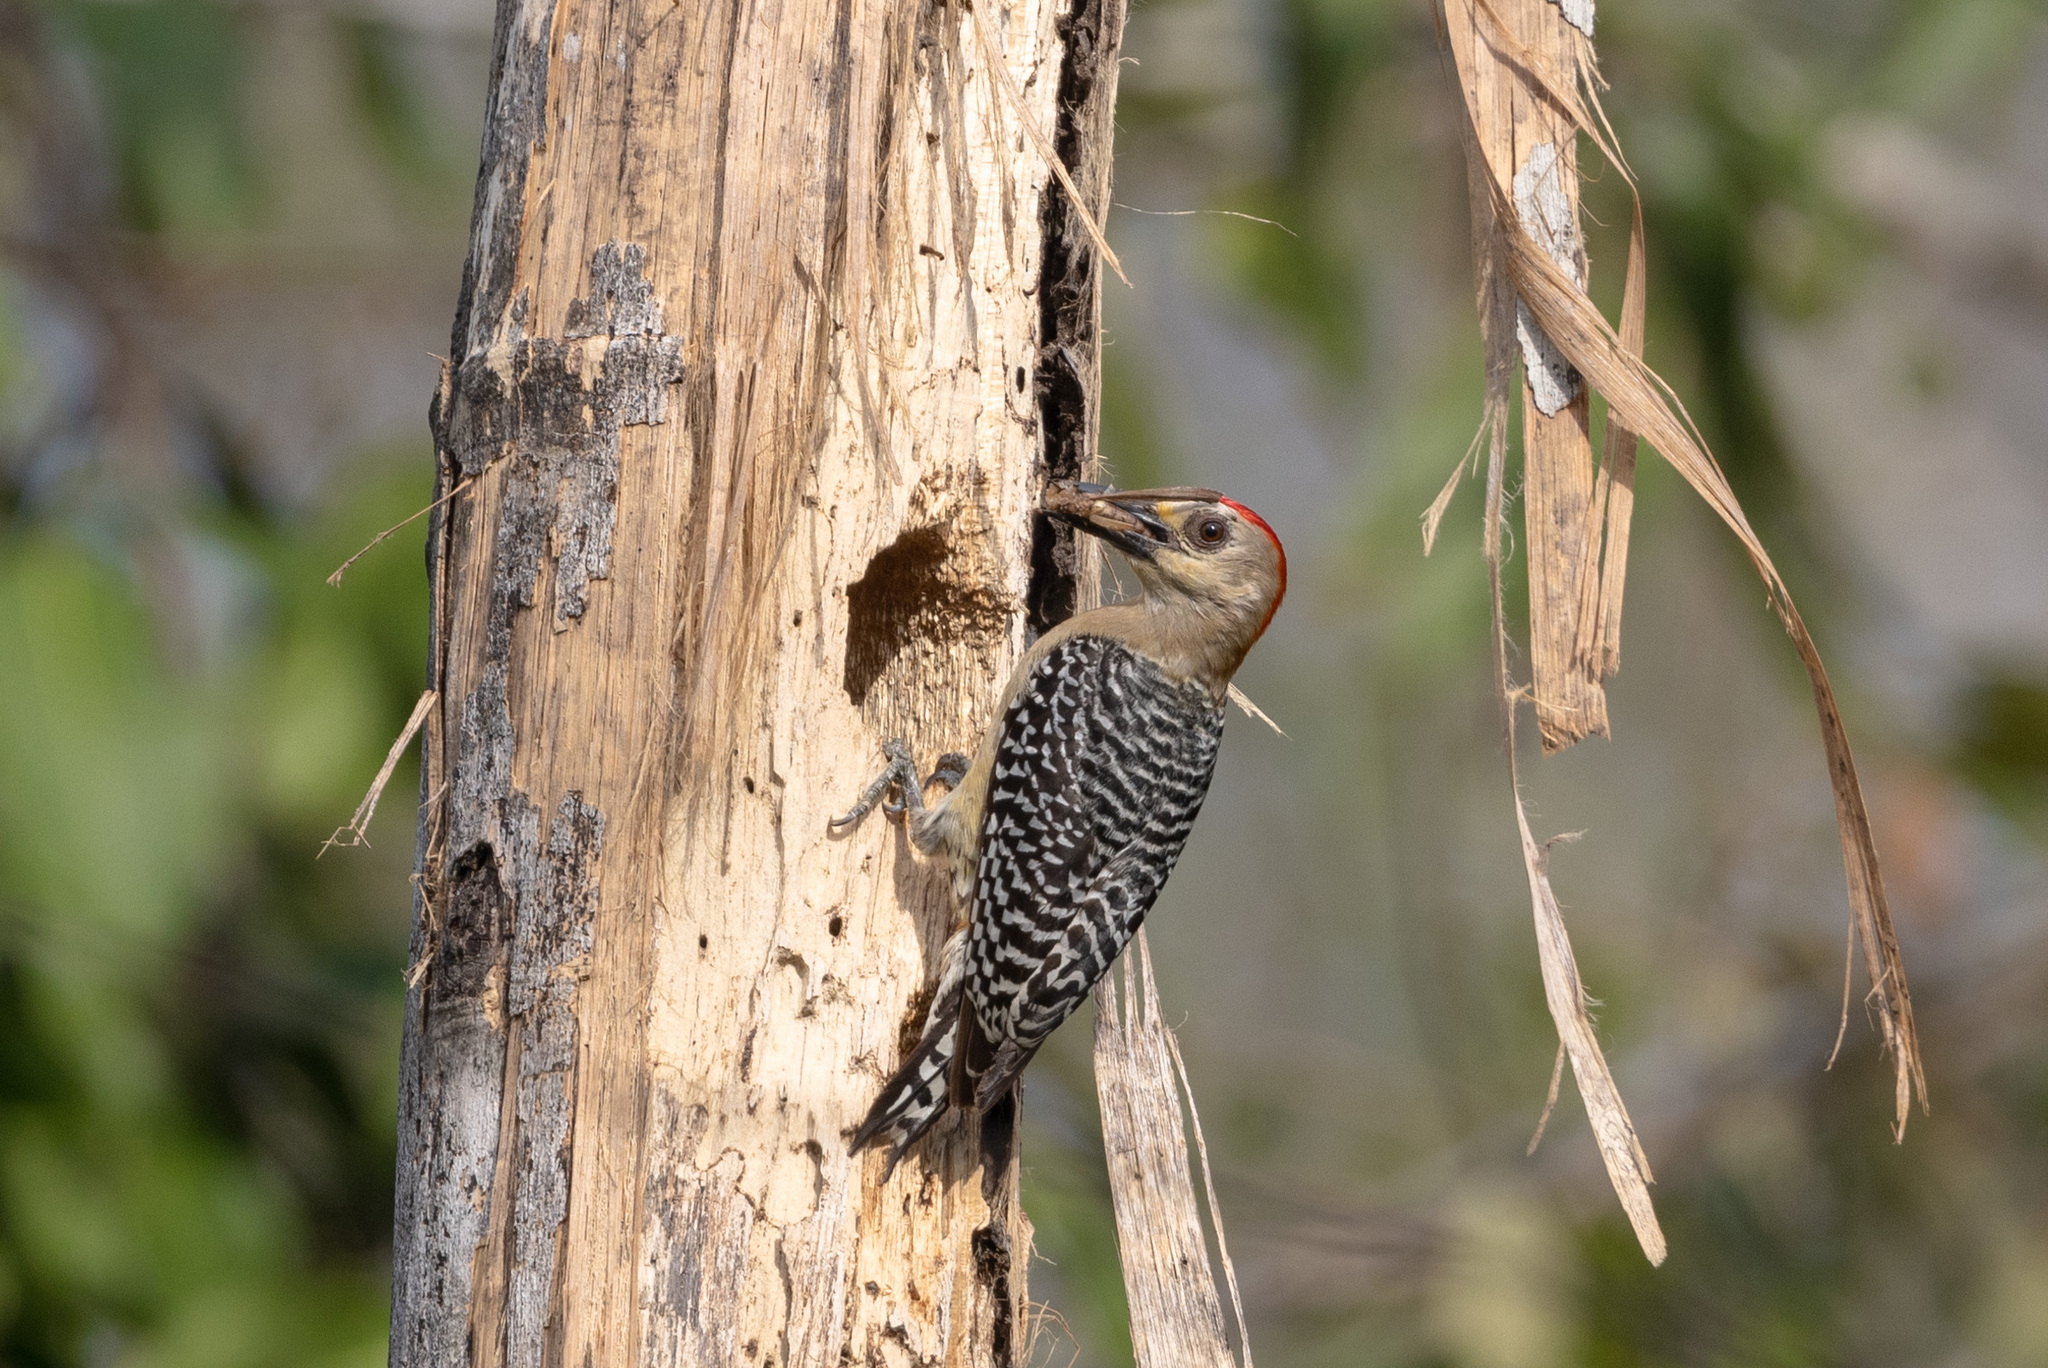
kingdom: Animalia
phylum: Chordata
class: Aves
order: Piciformes
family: Picidae
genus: Melanerpes
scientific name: Melanerpes rubricapillus
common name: Red-crowned woodpecker
